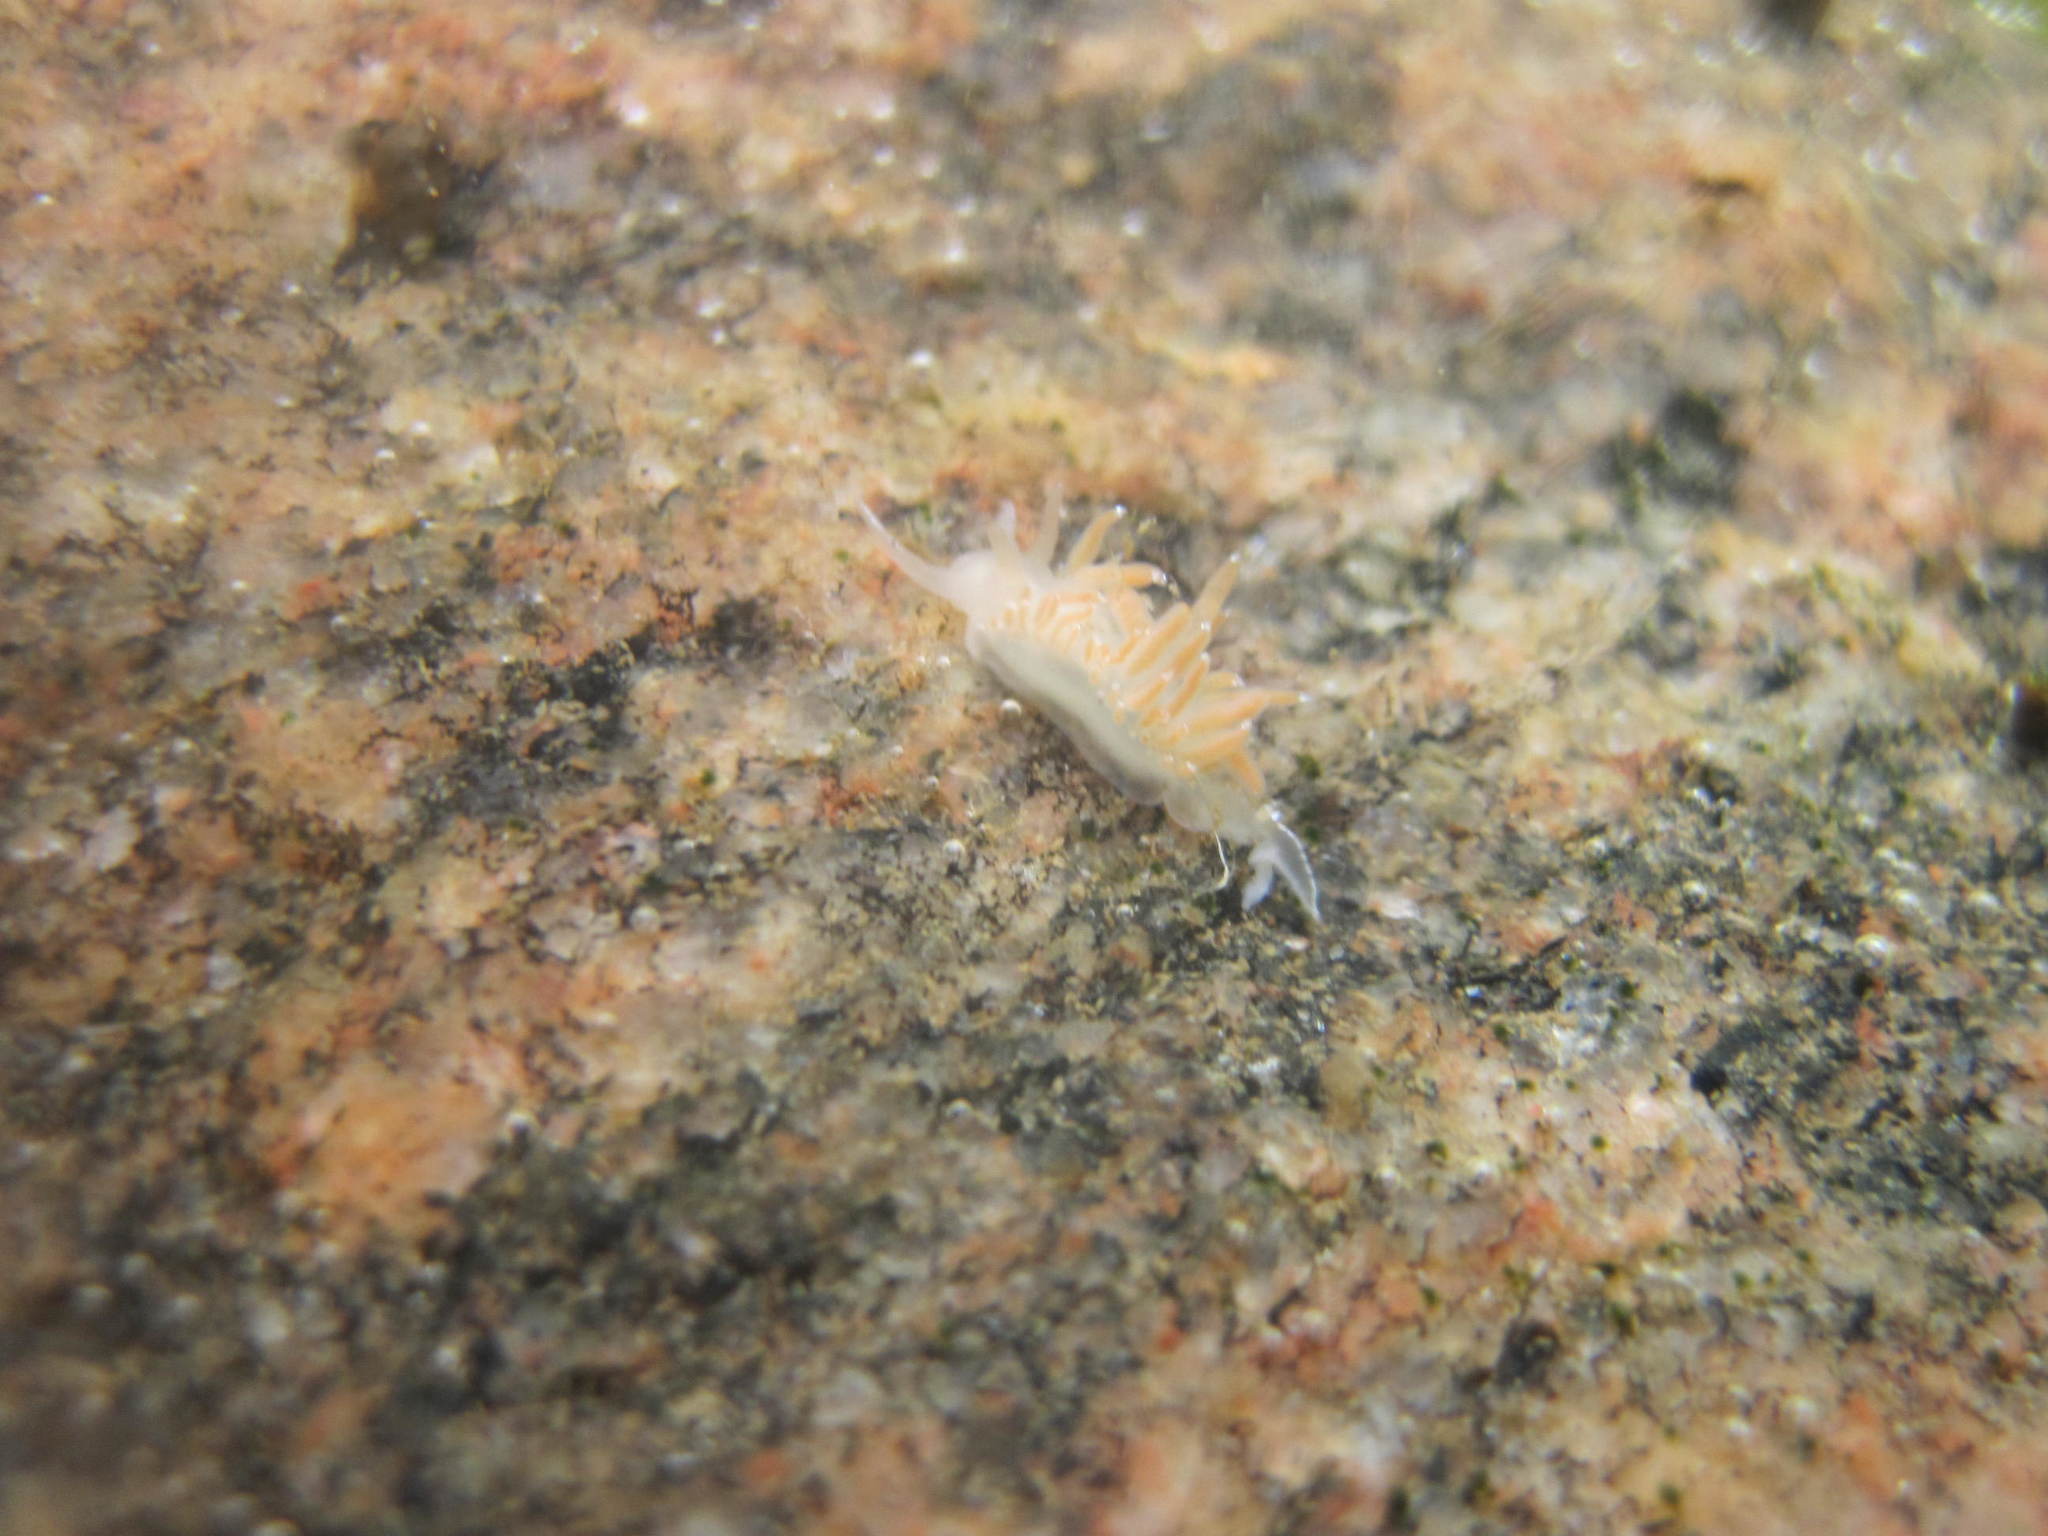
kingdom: Animalia
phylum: Mollusca
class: Gastropoda
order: Nudibranchia
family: Coryphellidae
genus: Coryphella
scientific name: Coryphella verrucosa
